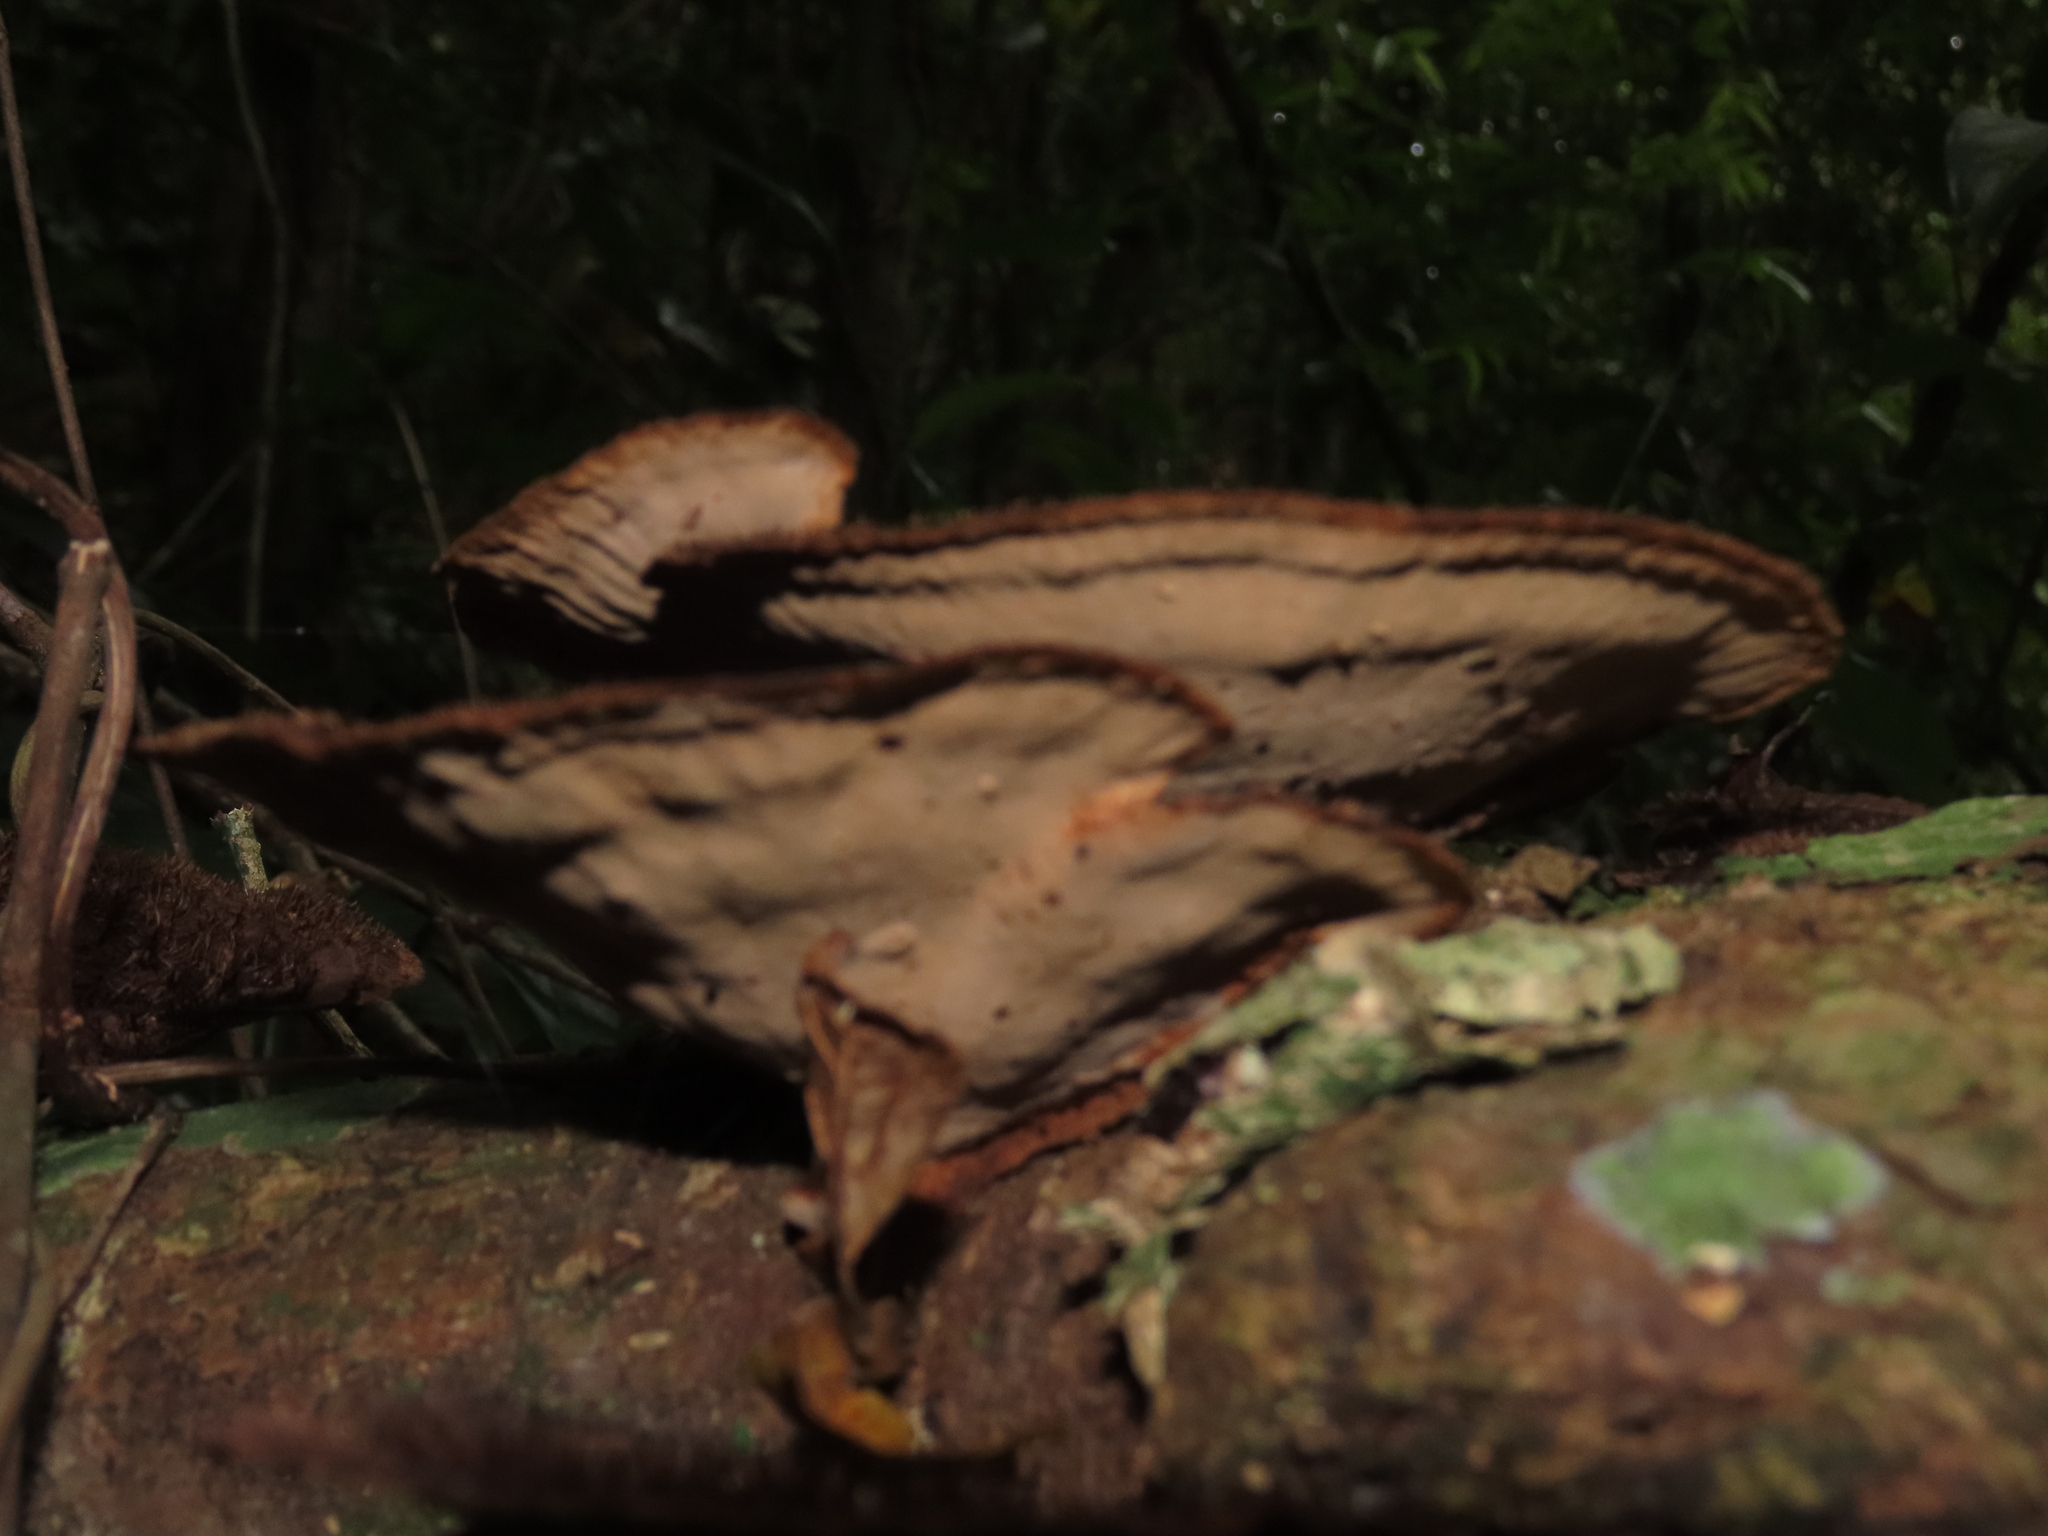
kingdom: Fungi
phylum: Basidiomycota
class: Agaricomycetes
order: Polyporales
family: Cerrenaceae
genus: Cerrena
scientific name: Cerrena hydnoides
